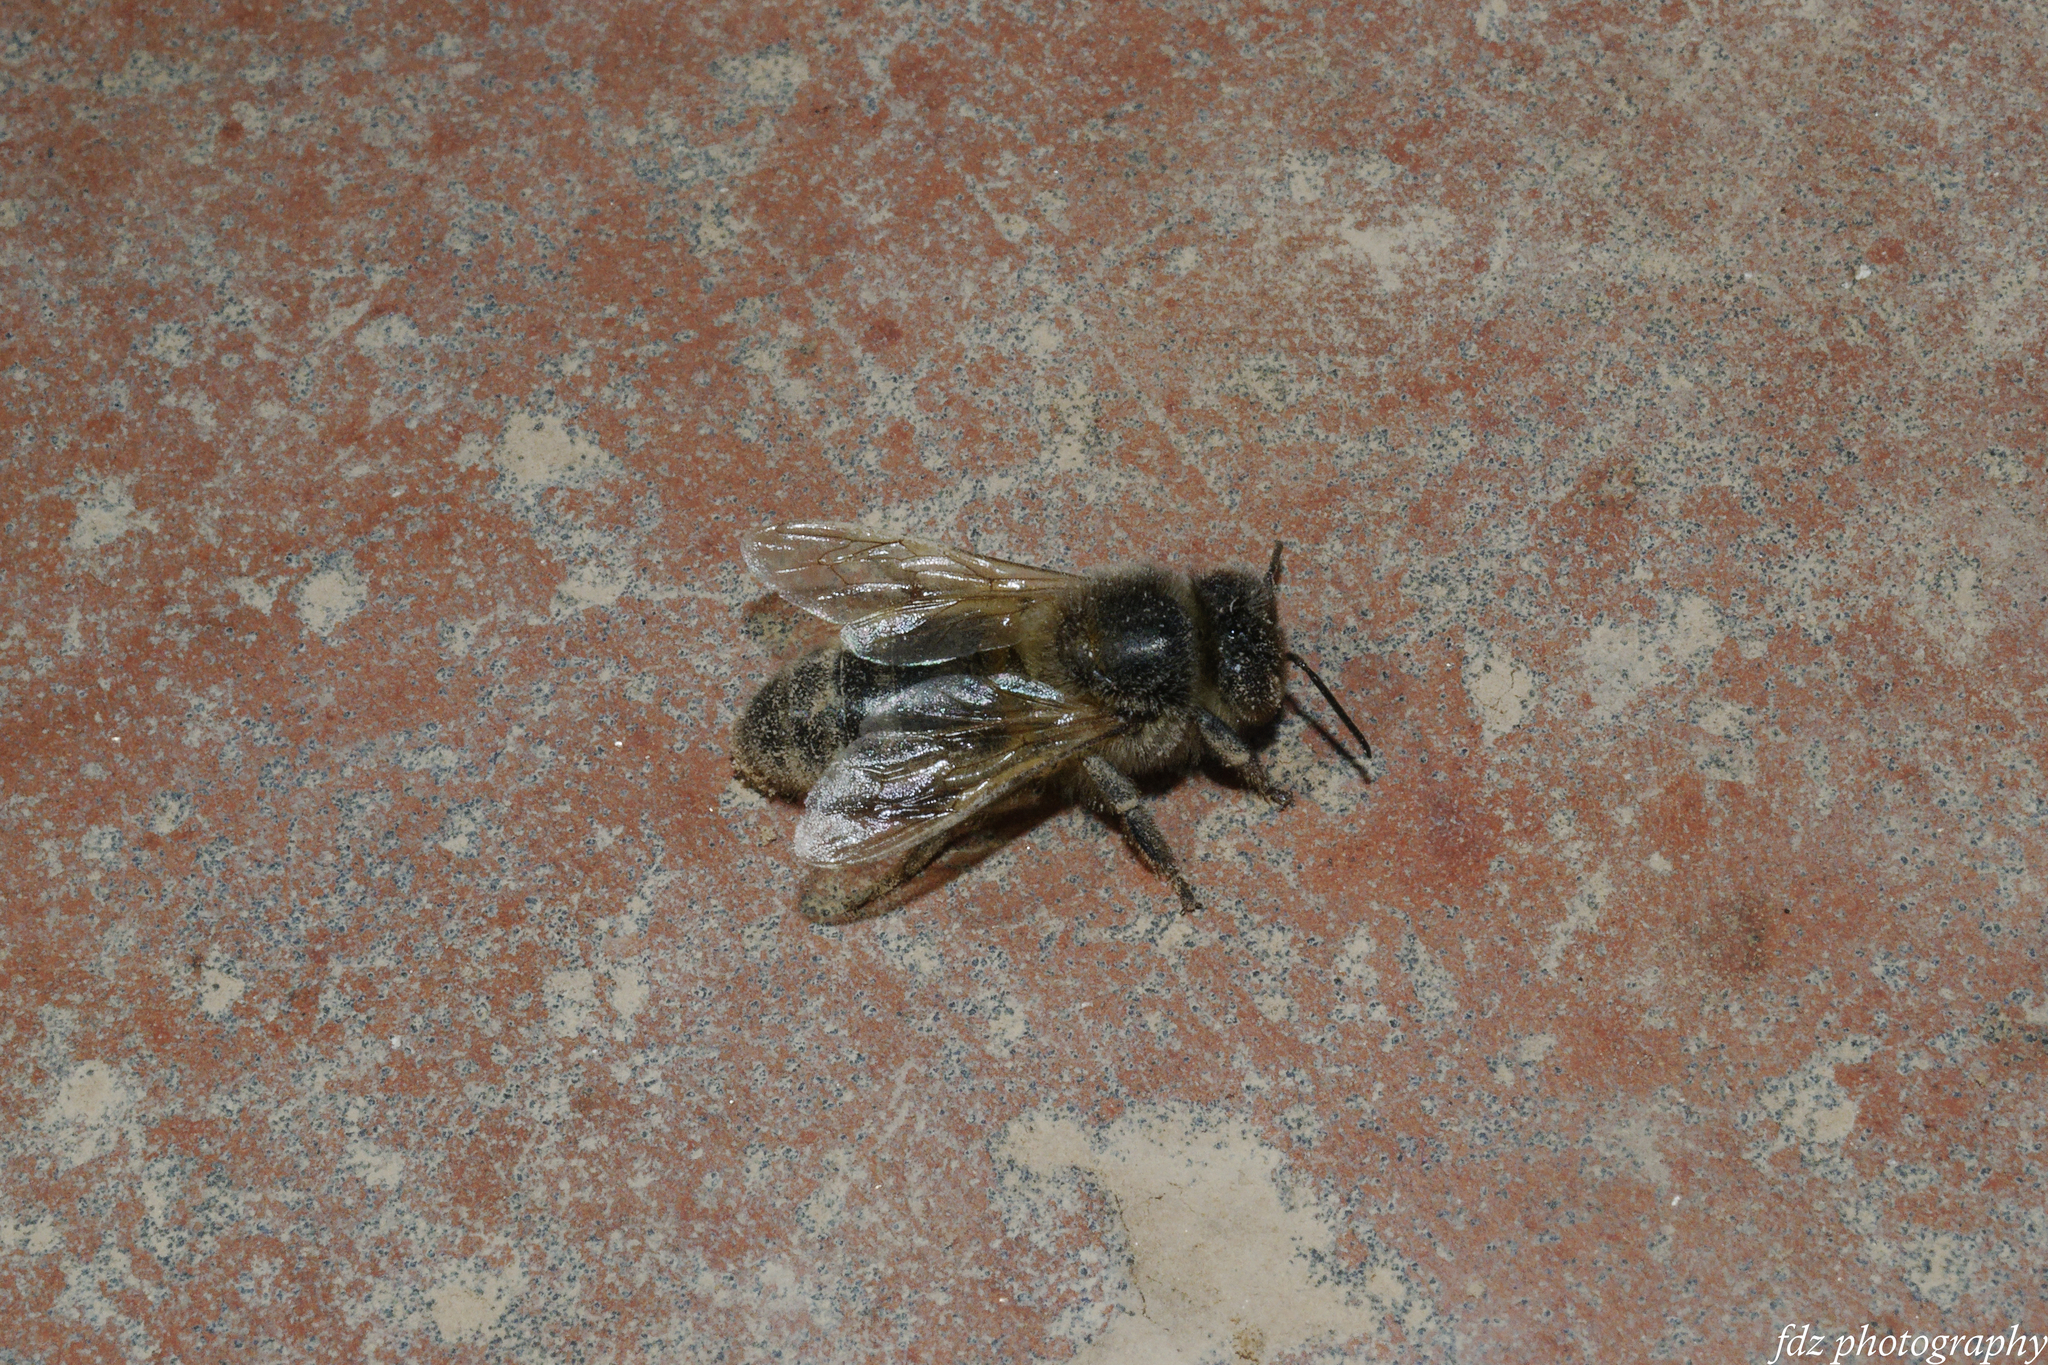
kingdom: Animalia
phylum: Arthropoda
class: Insecta
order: Hymenoptera
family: Apidae
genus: Apis
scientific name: Apis mellifera
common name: Honey bee
